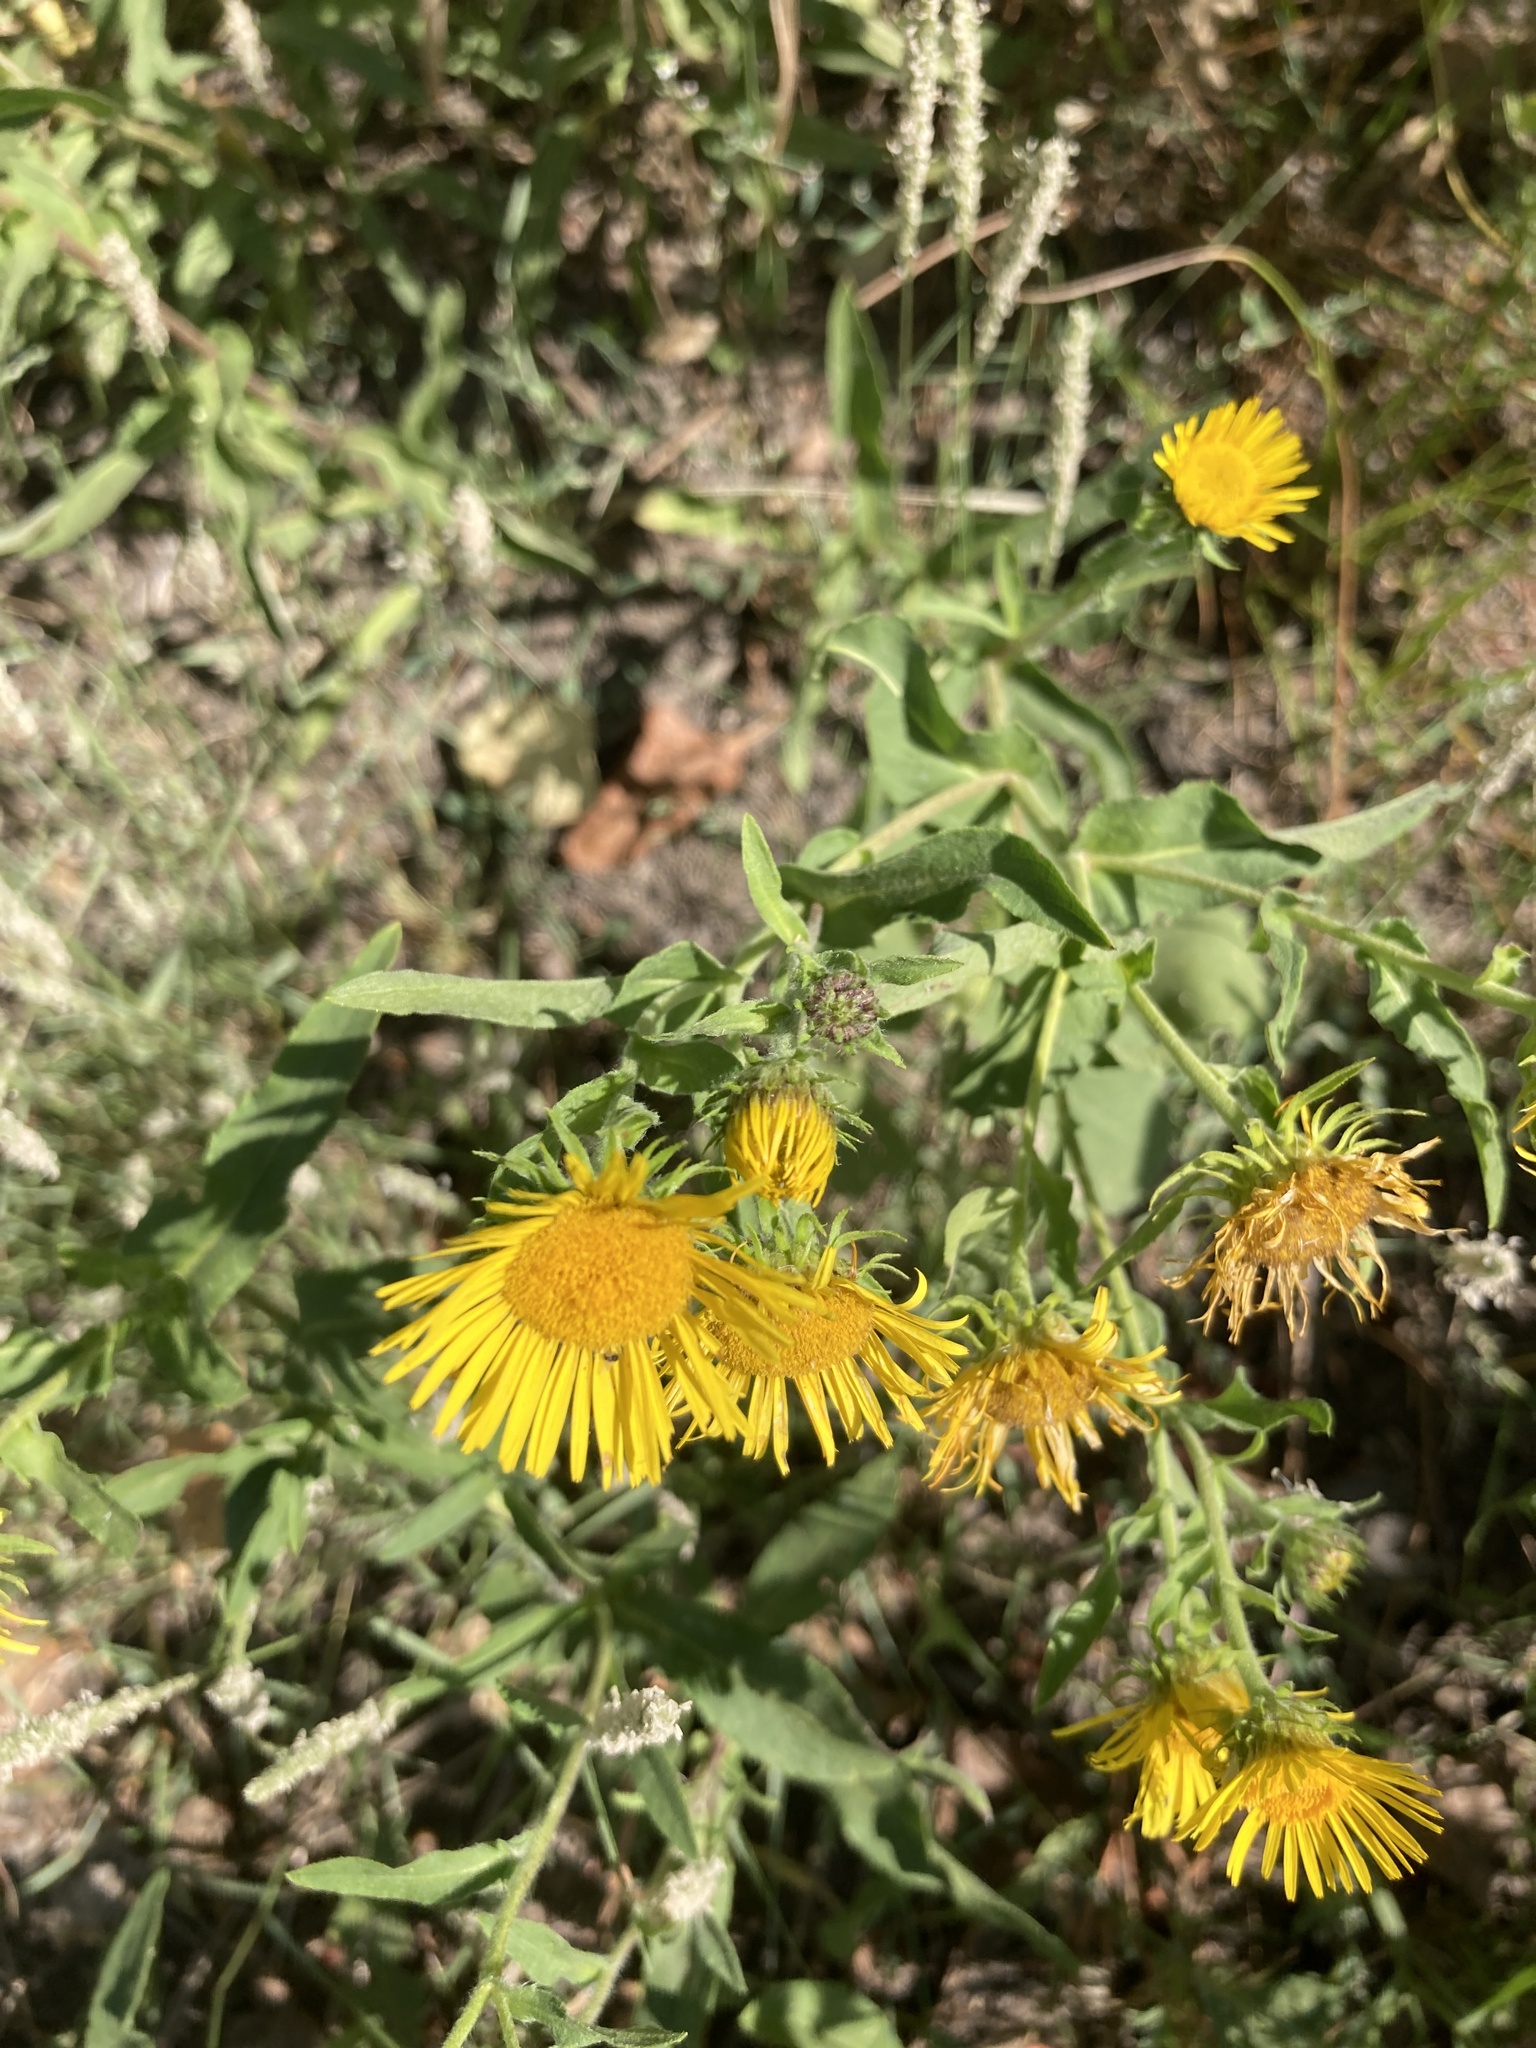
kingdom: Plantae
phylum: Tracheophyta
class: Magnoliopsida
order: Asterales
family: Asteraceae
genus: Pentanema
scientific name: Pentanema britannicum
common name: British elecampane
